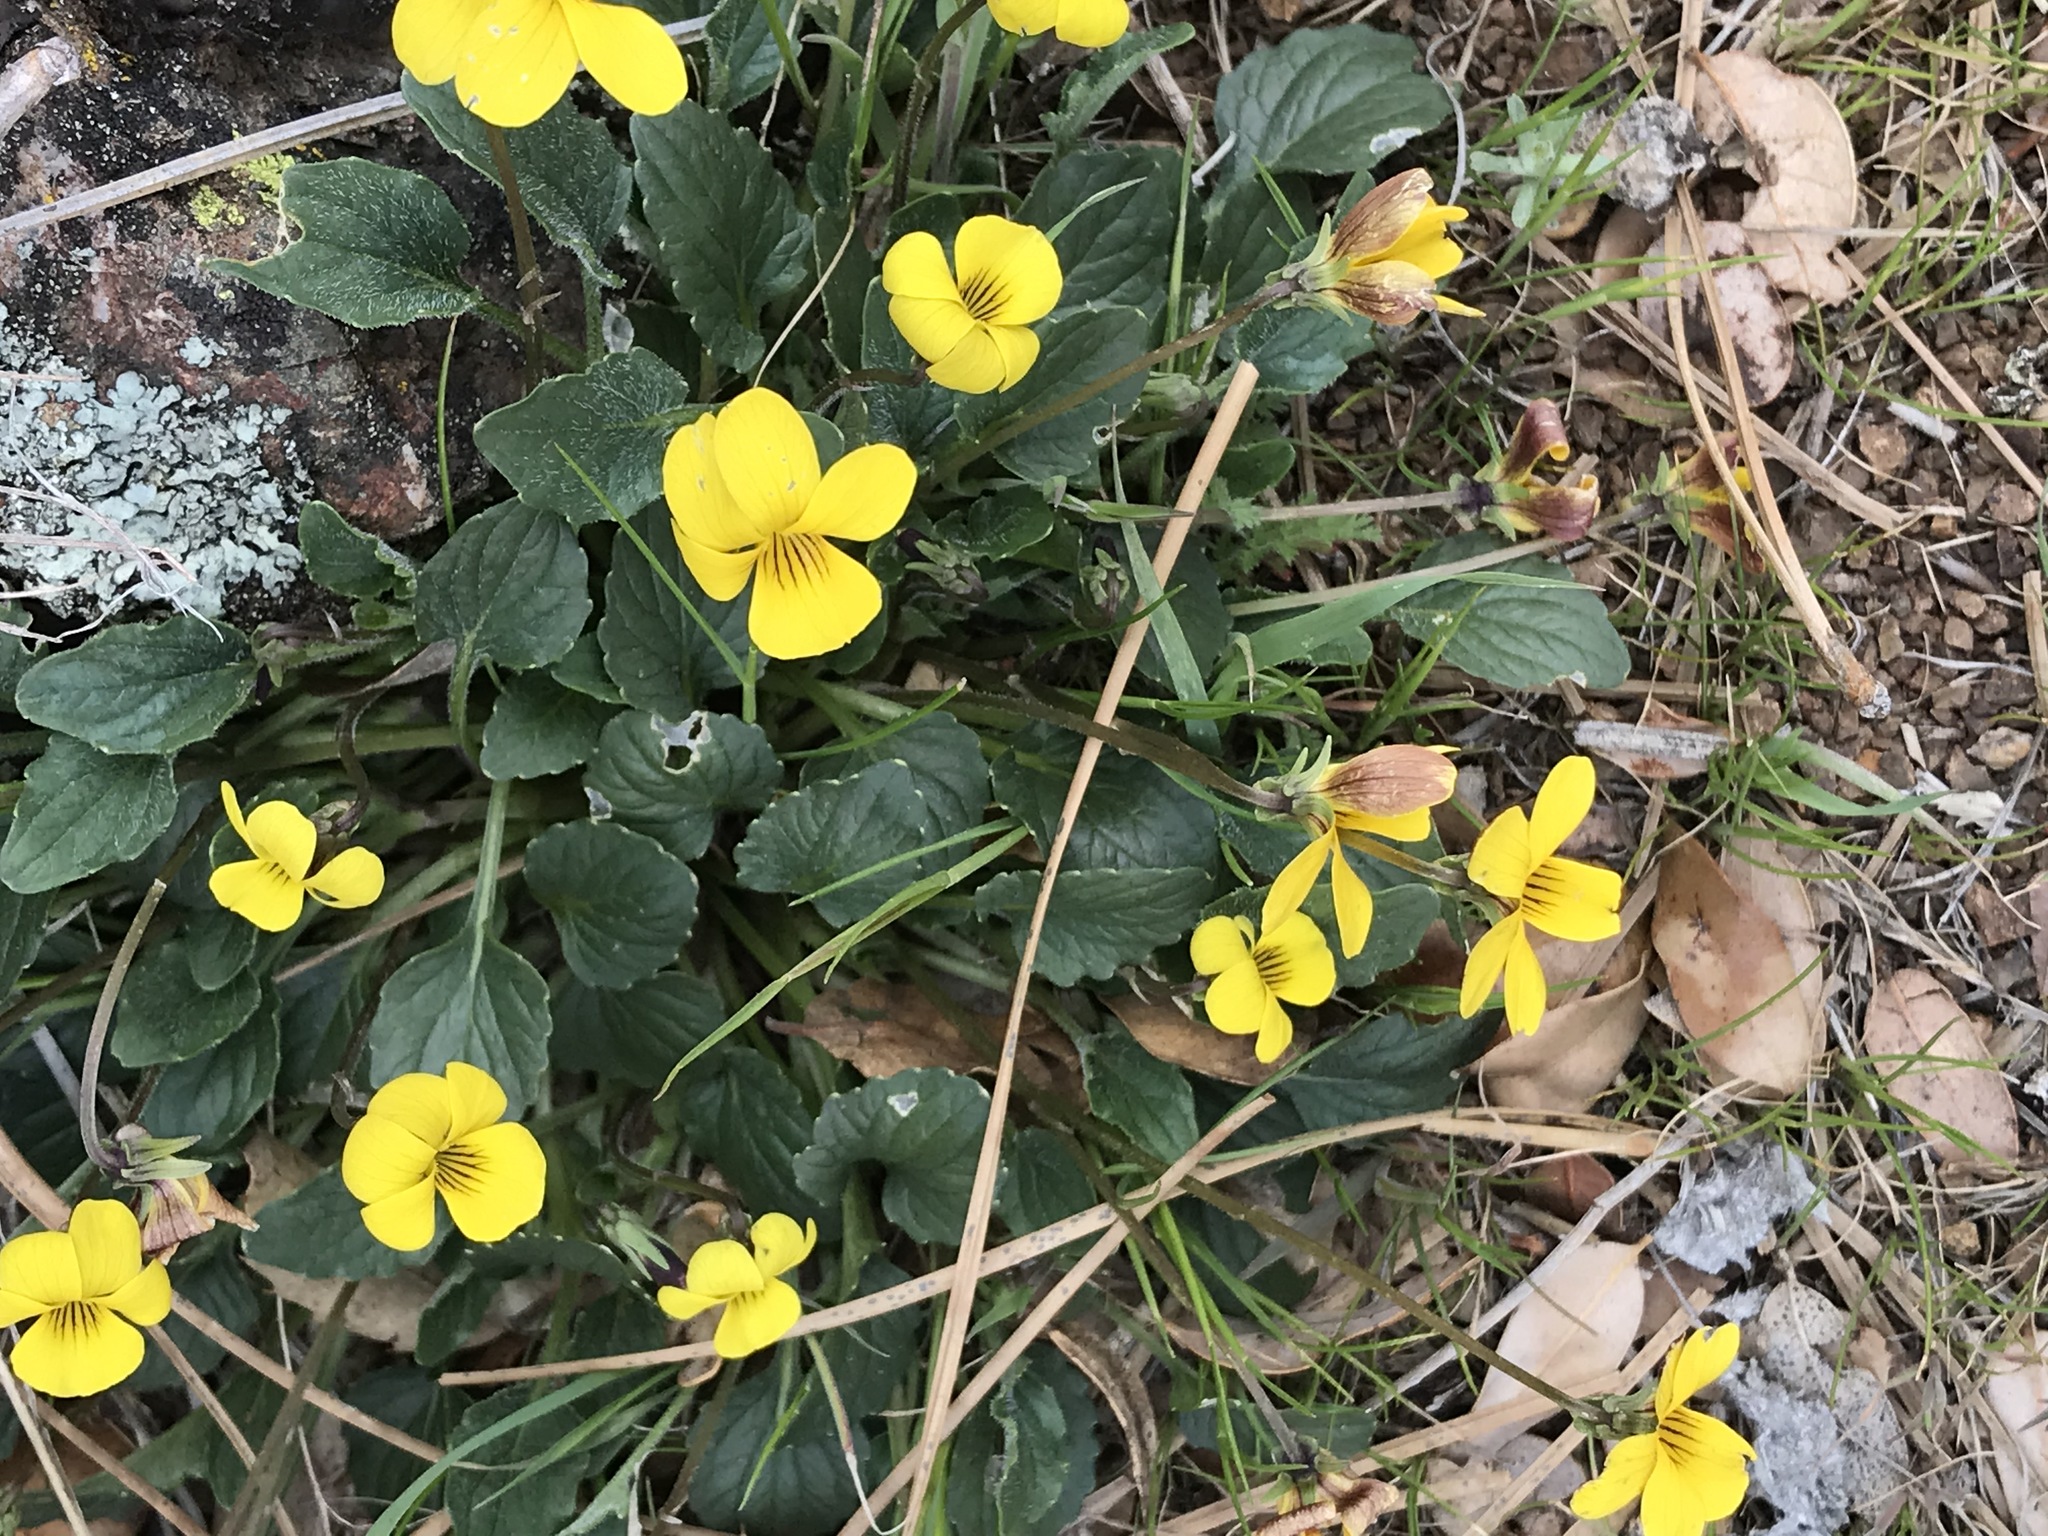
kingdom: Plantae
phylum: Tracheophyta
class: Magnoliopsida
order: Malpighiales
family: Violaceae
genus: Viola
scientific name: Viola purpurea
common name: Pine violet
